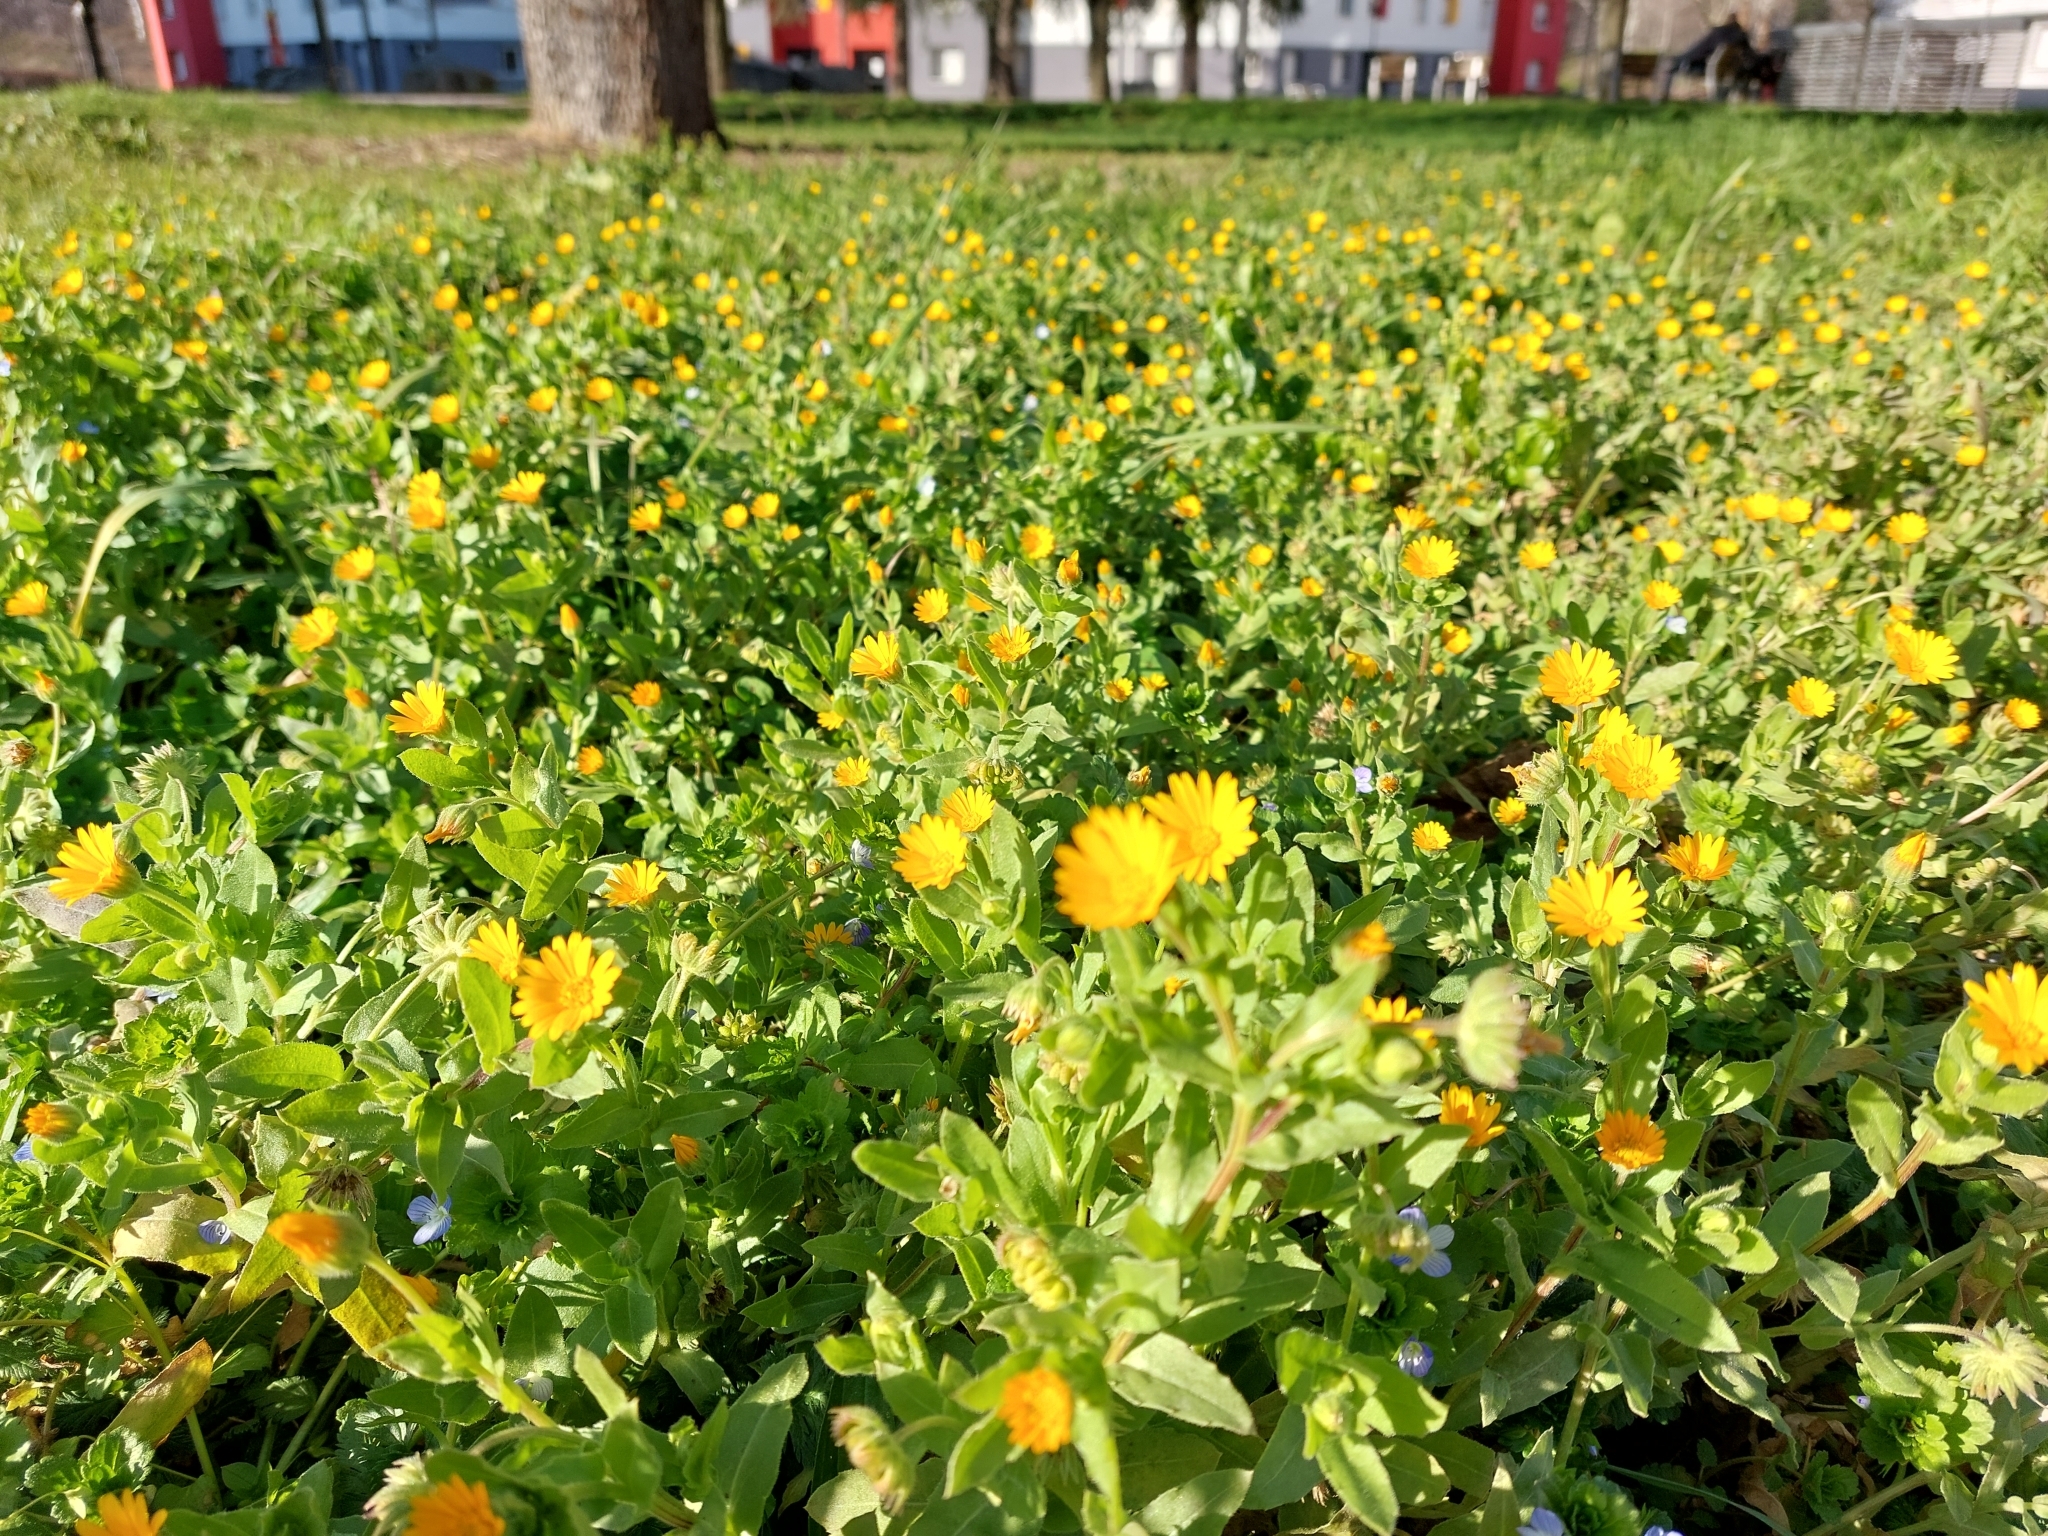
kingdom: Plantae
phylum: Tracheophyta
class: Magnoliopsida
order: Asterales
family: Asteraceae
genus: Calendula
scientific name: Calendula arvensis
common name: Field marigold
